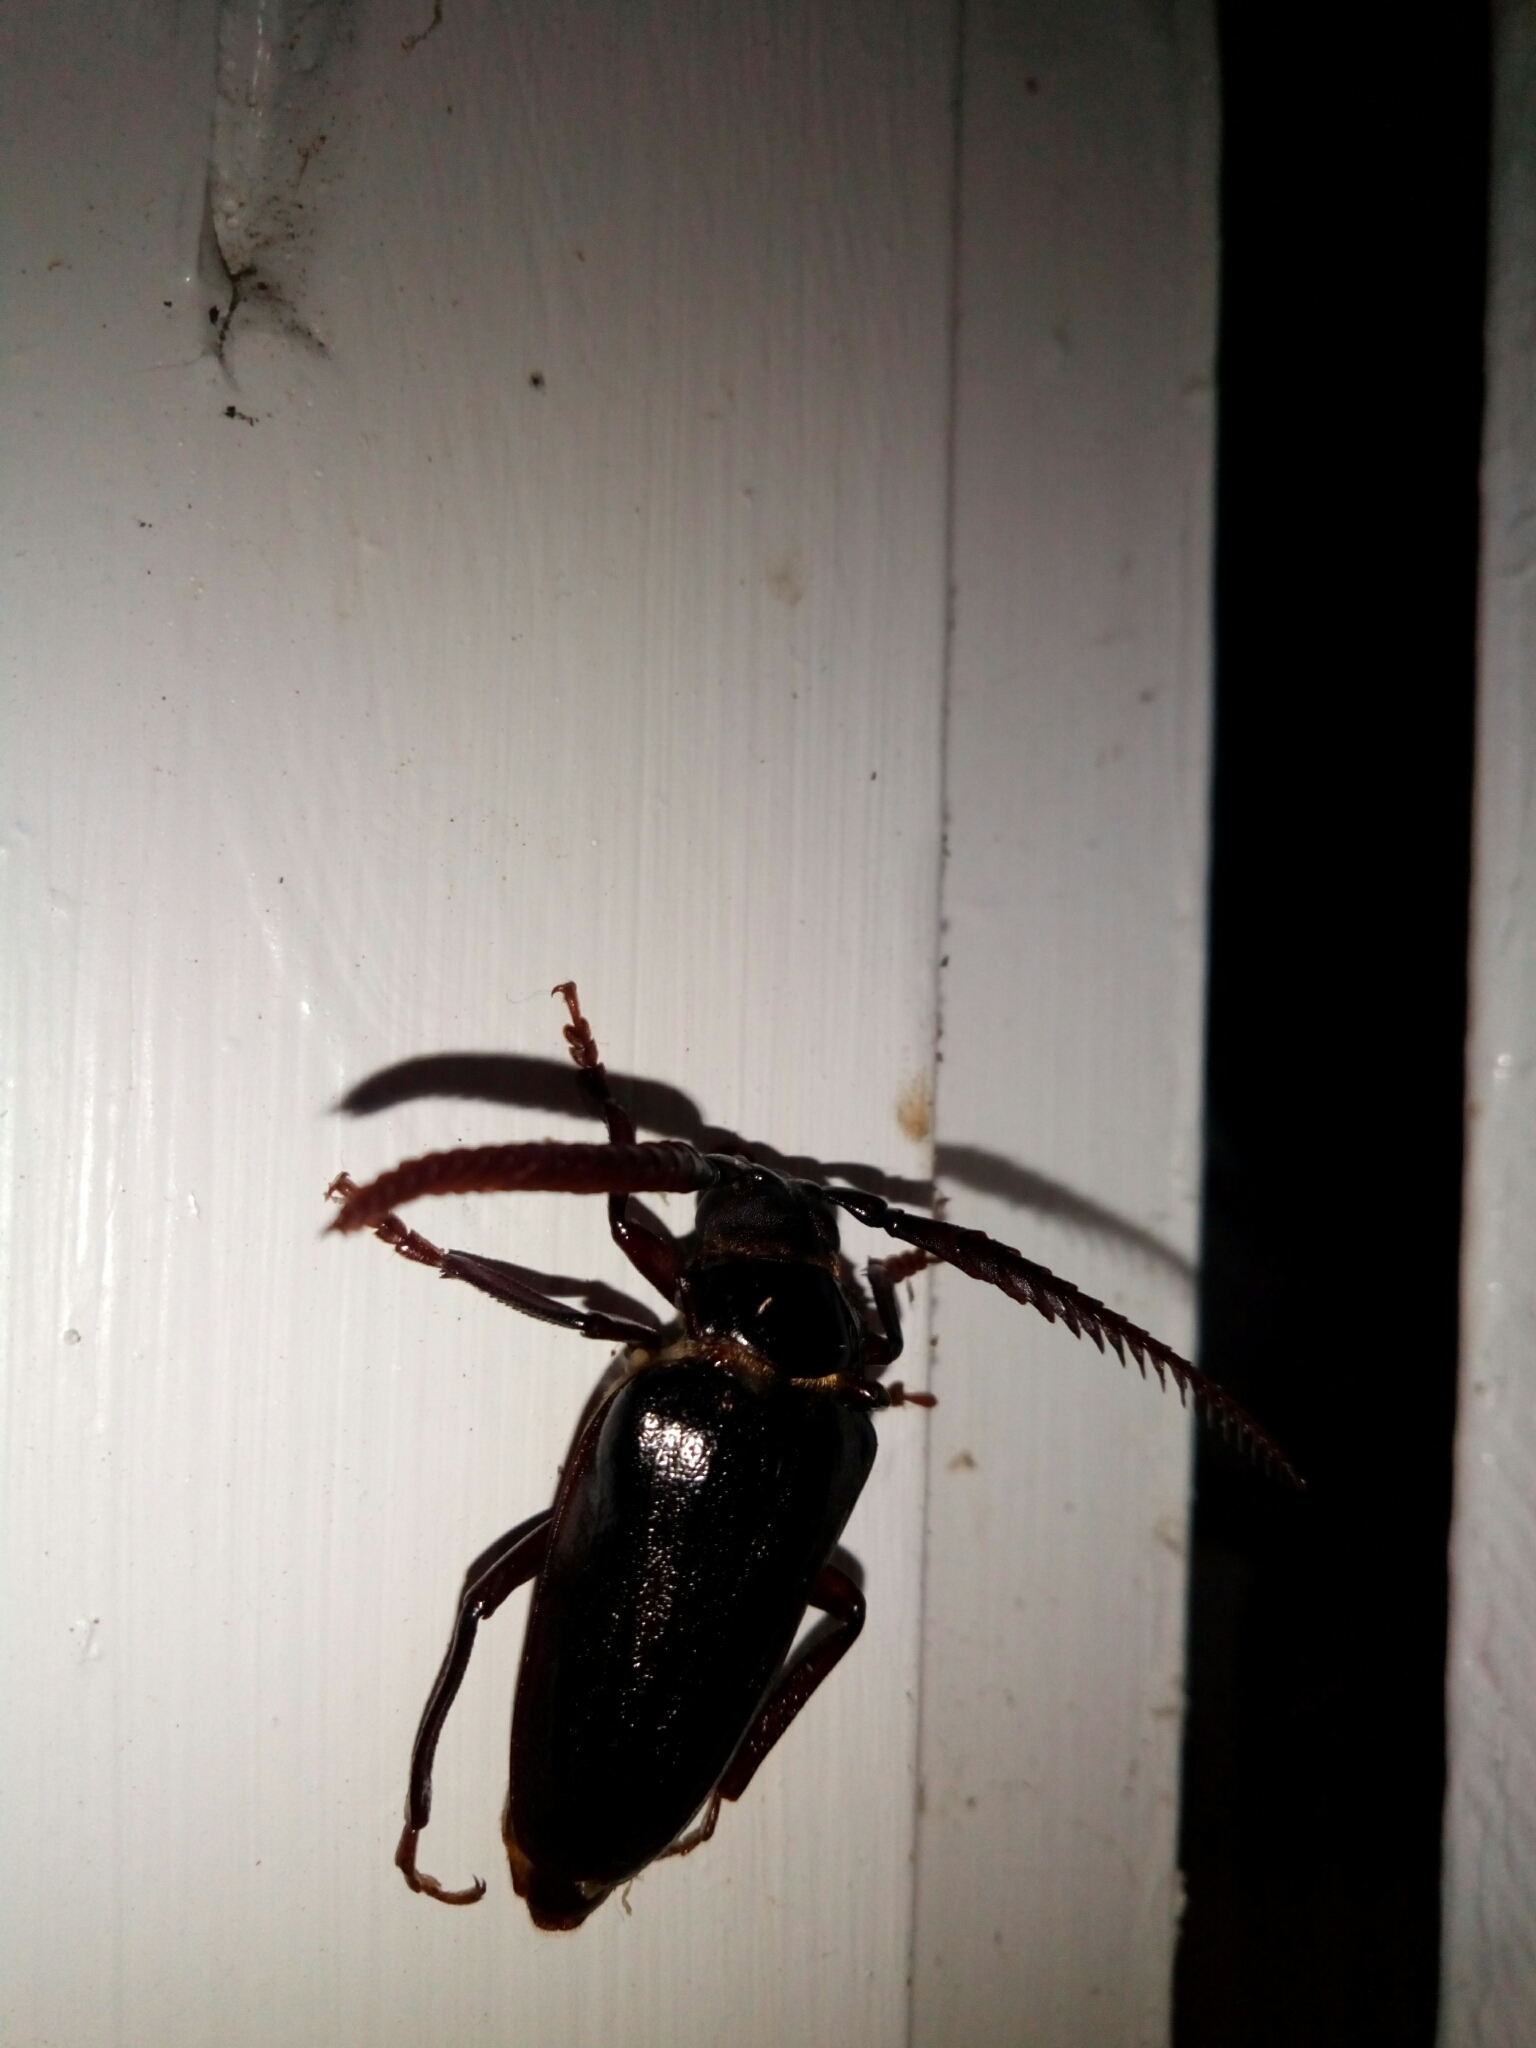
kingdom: Animalia
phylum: Arthropoda
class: Insecta
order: Coleoptera
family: Cerambycidae
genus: Prionus
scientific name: Prionus imbricornis
